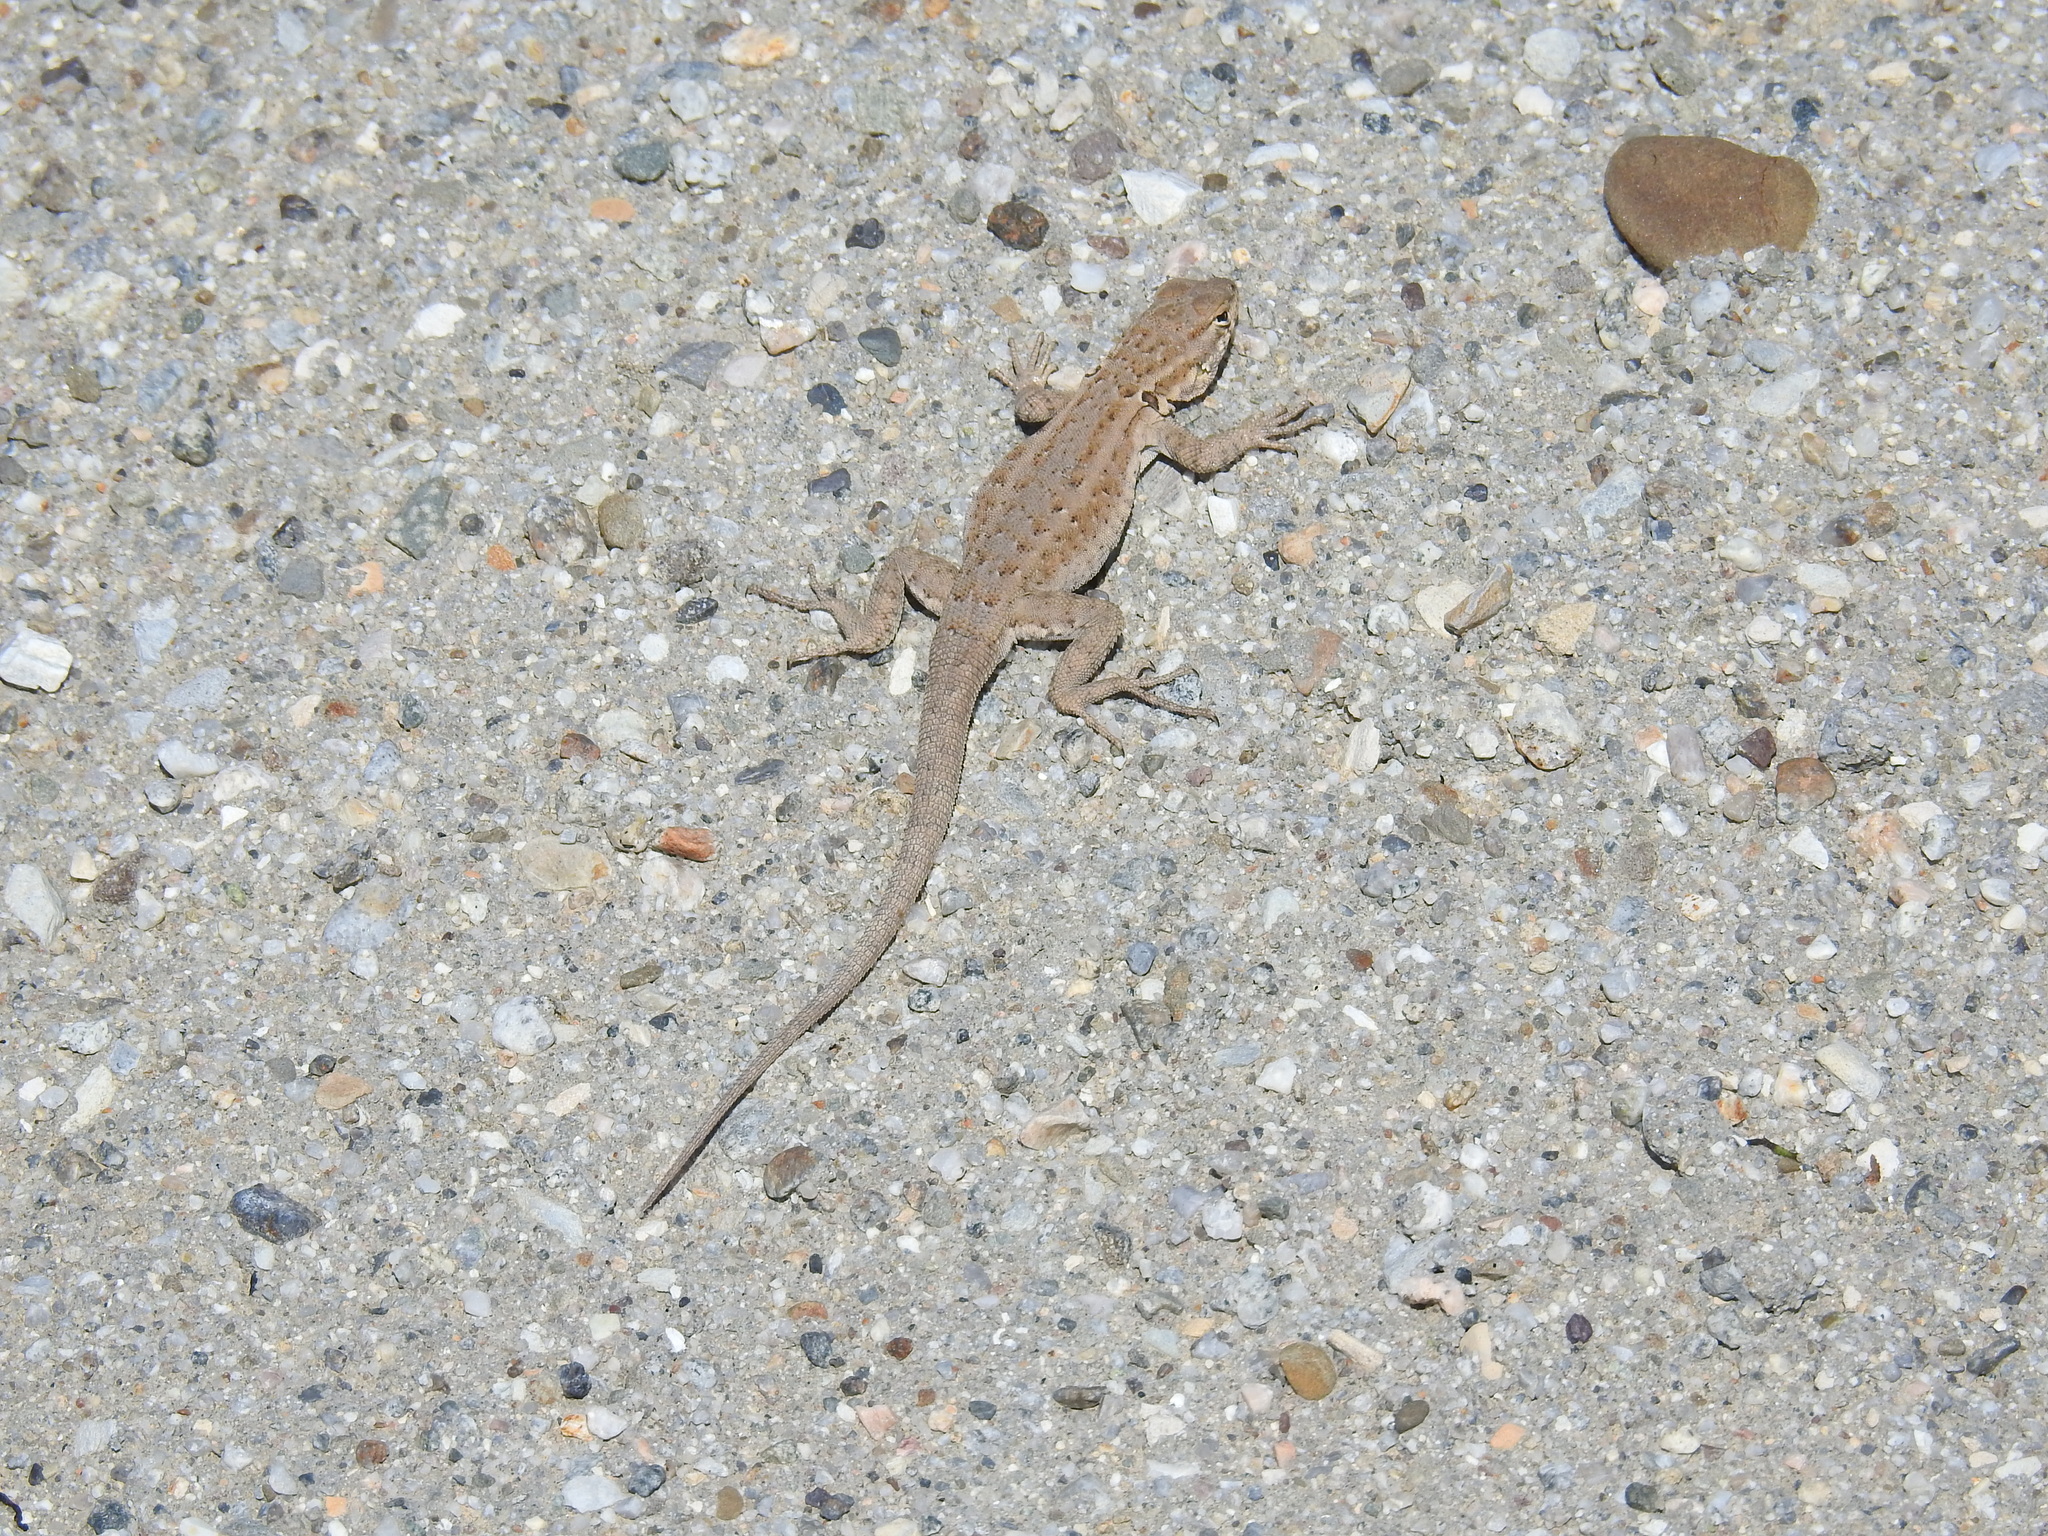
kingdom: Animalia
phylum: Chordata
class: Squamata
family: Phrynosomatidae
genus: Uta
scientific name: Uta stansburiana
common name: Side-blotched lizard
